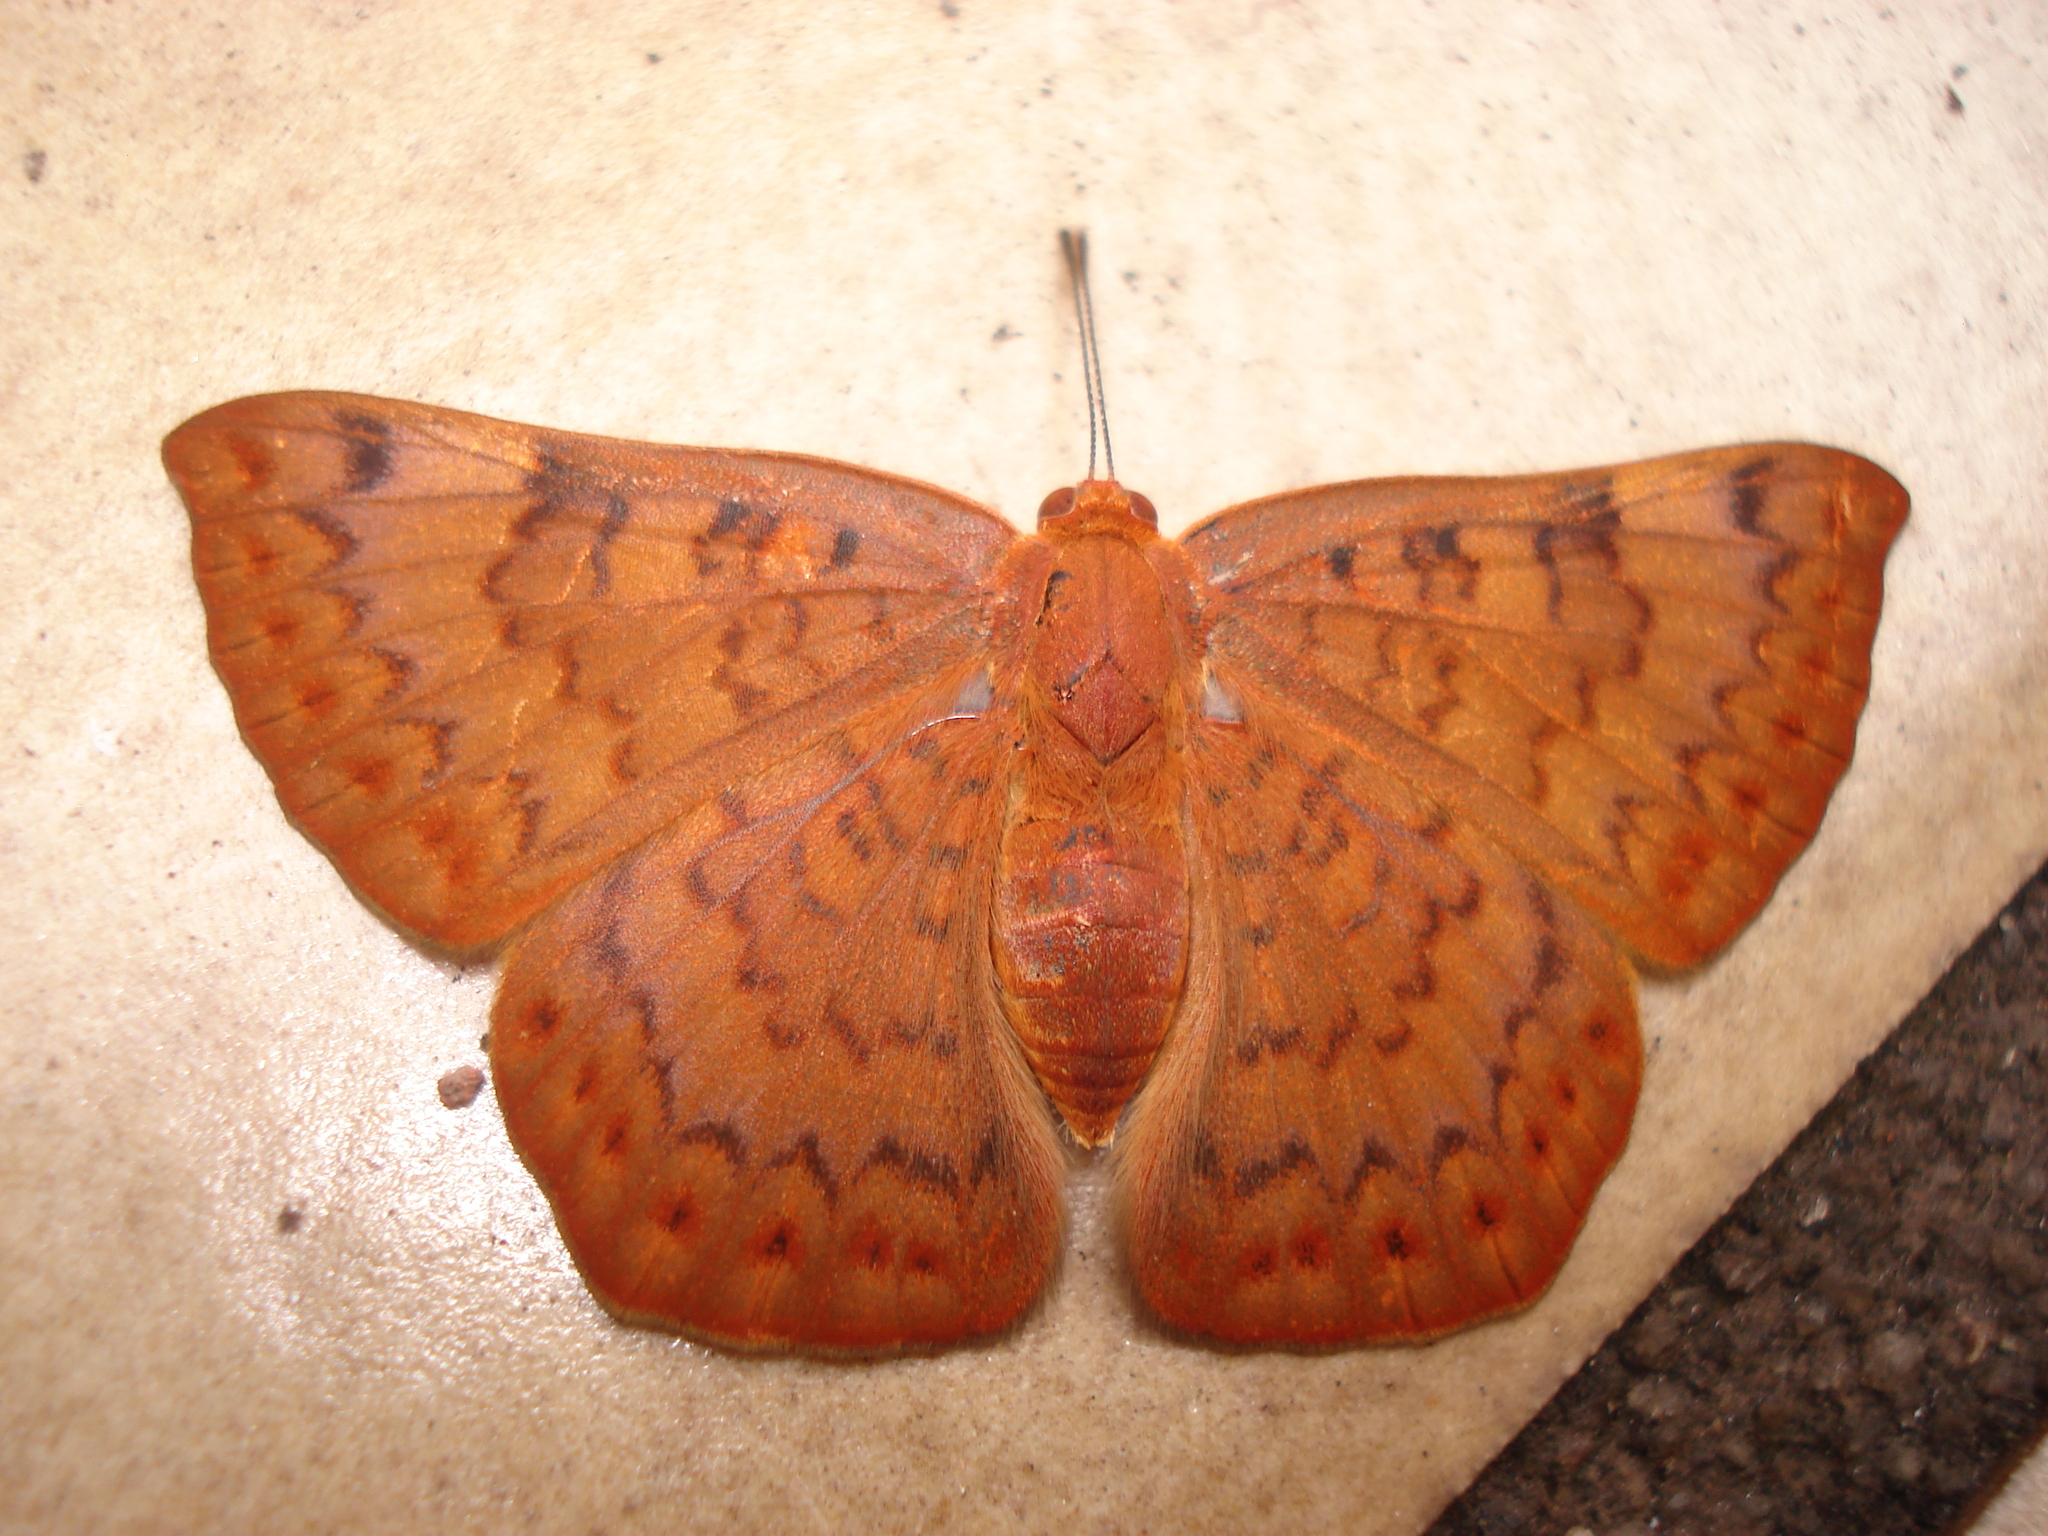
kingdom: Animalia
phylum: Arthropoda
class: Insecta
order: Lepidoptera
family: Lycaenidae
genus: Emesis
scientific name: Emesis russula
